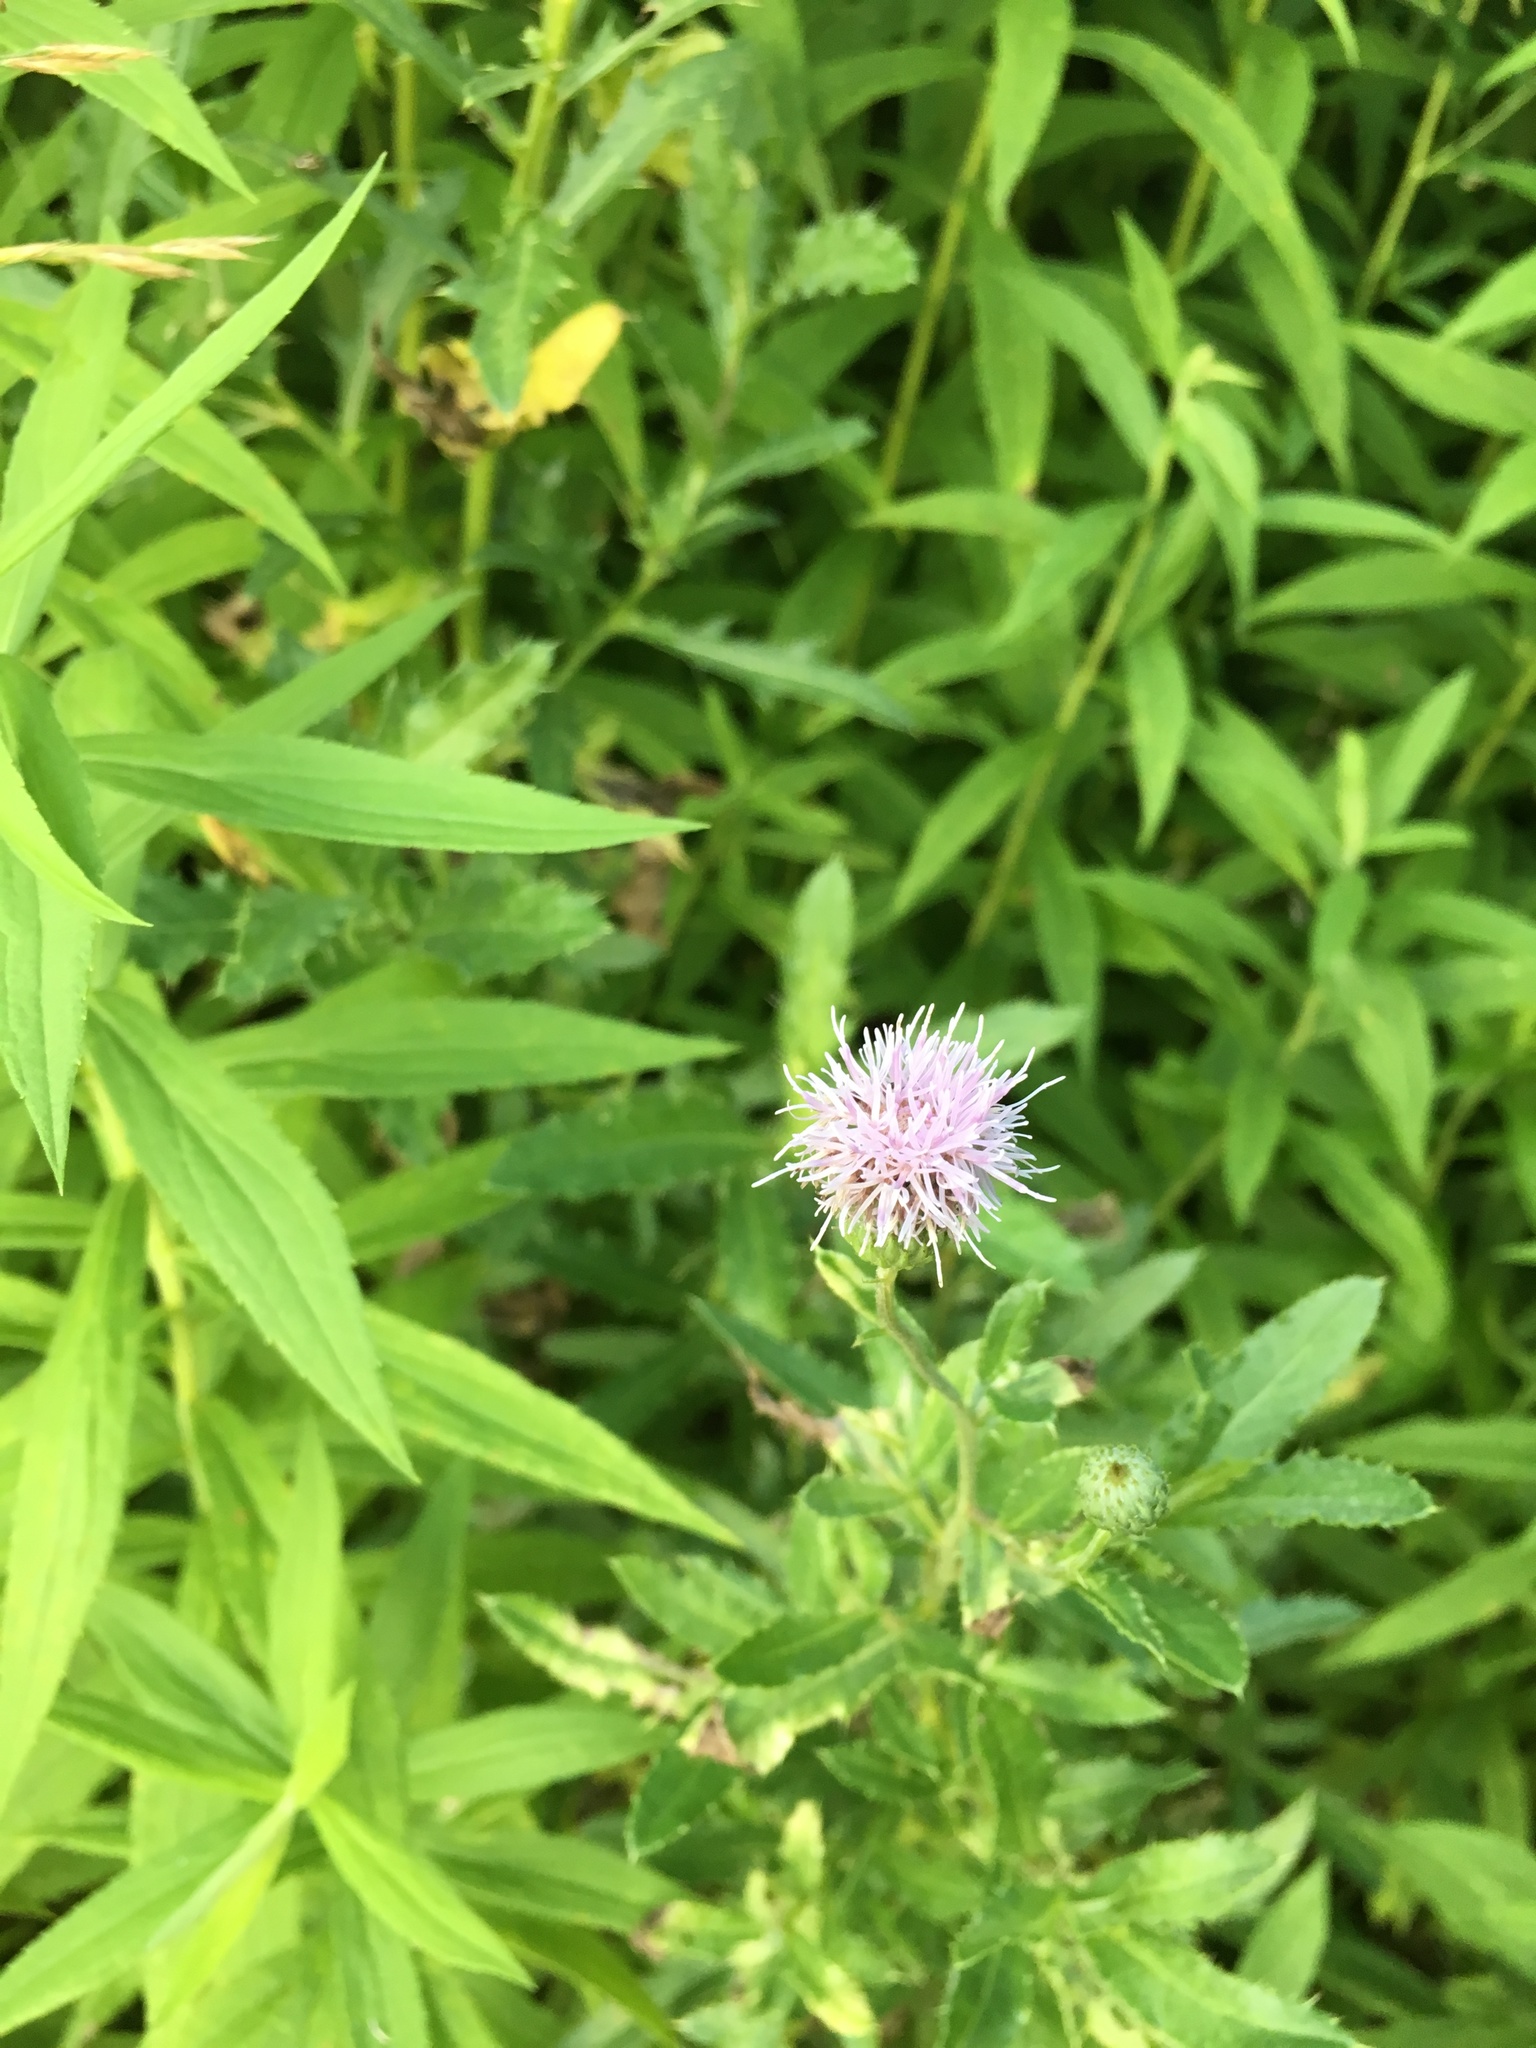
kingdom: Plantae
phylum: Tracheophyta
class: Magnoliopsida
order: Asterales
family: Asteraceae
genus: Cirsium
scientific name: Cirsium arvense
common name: Creeping thistle
